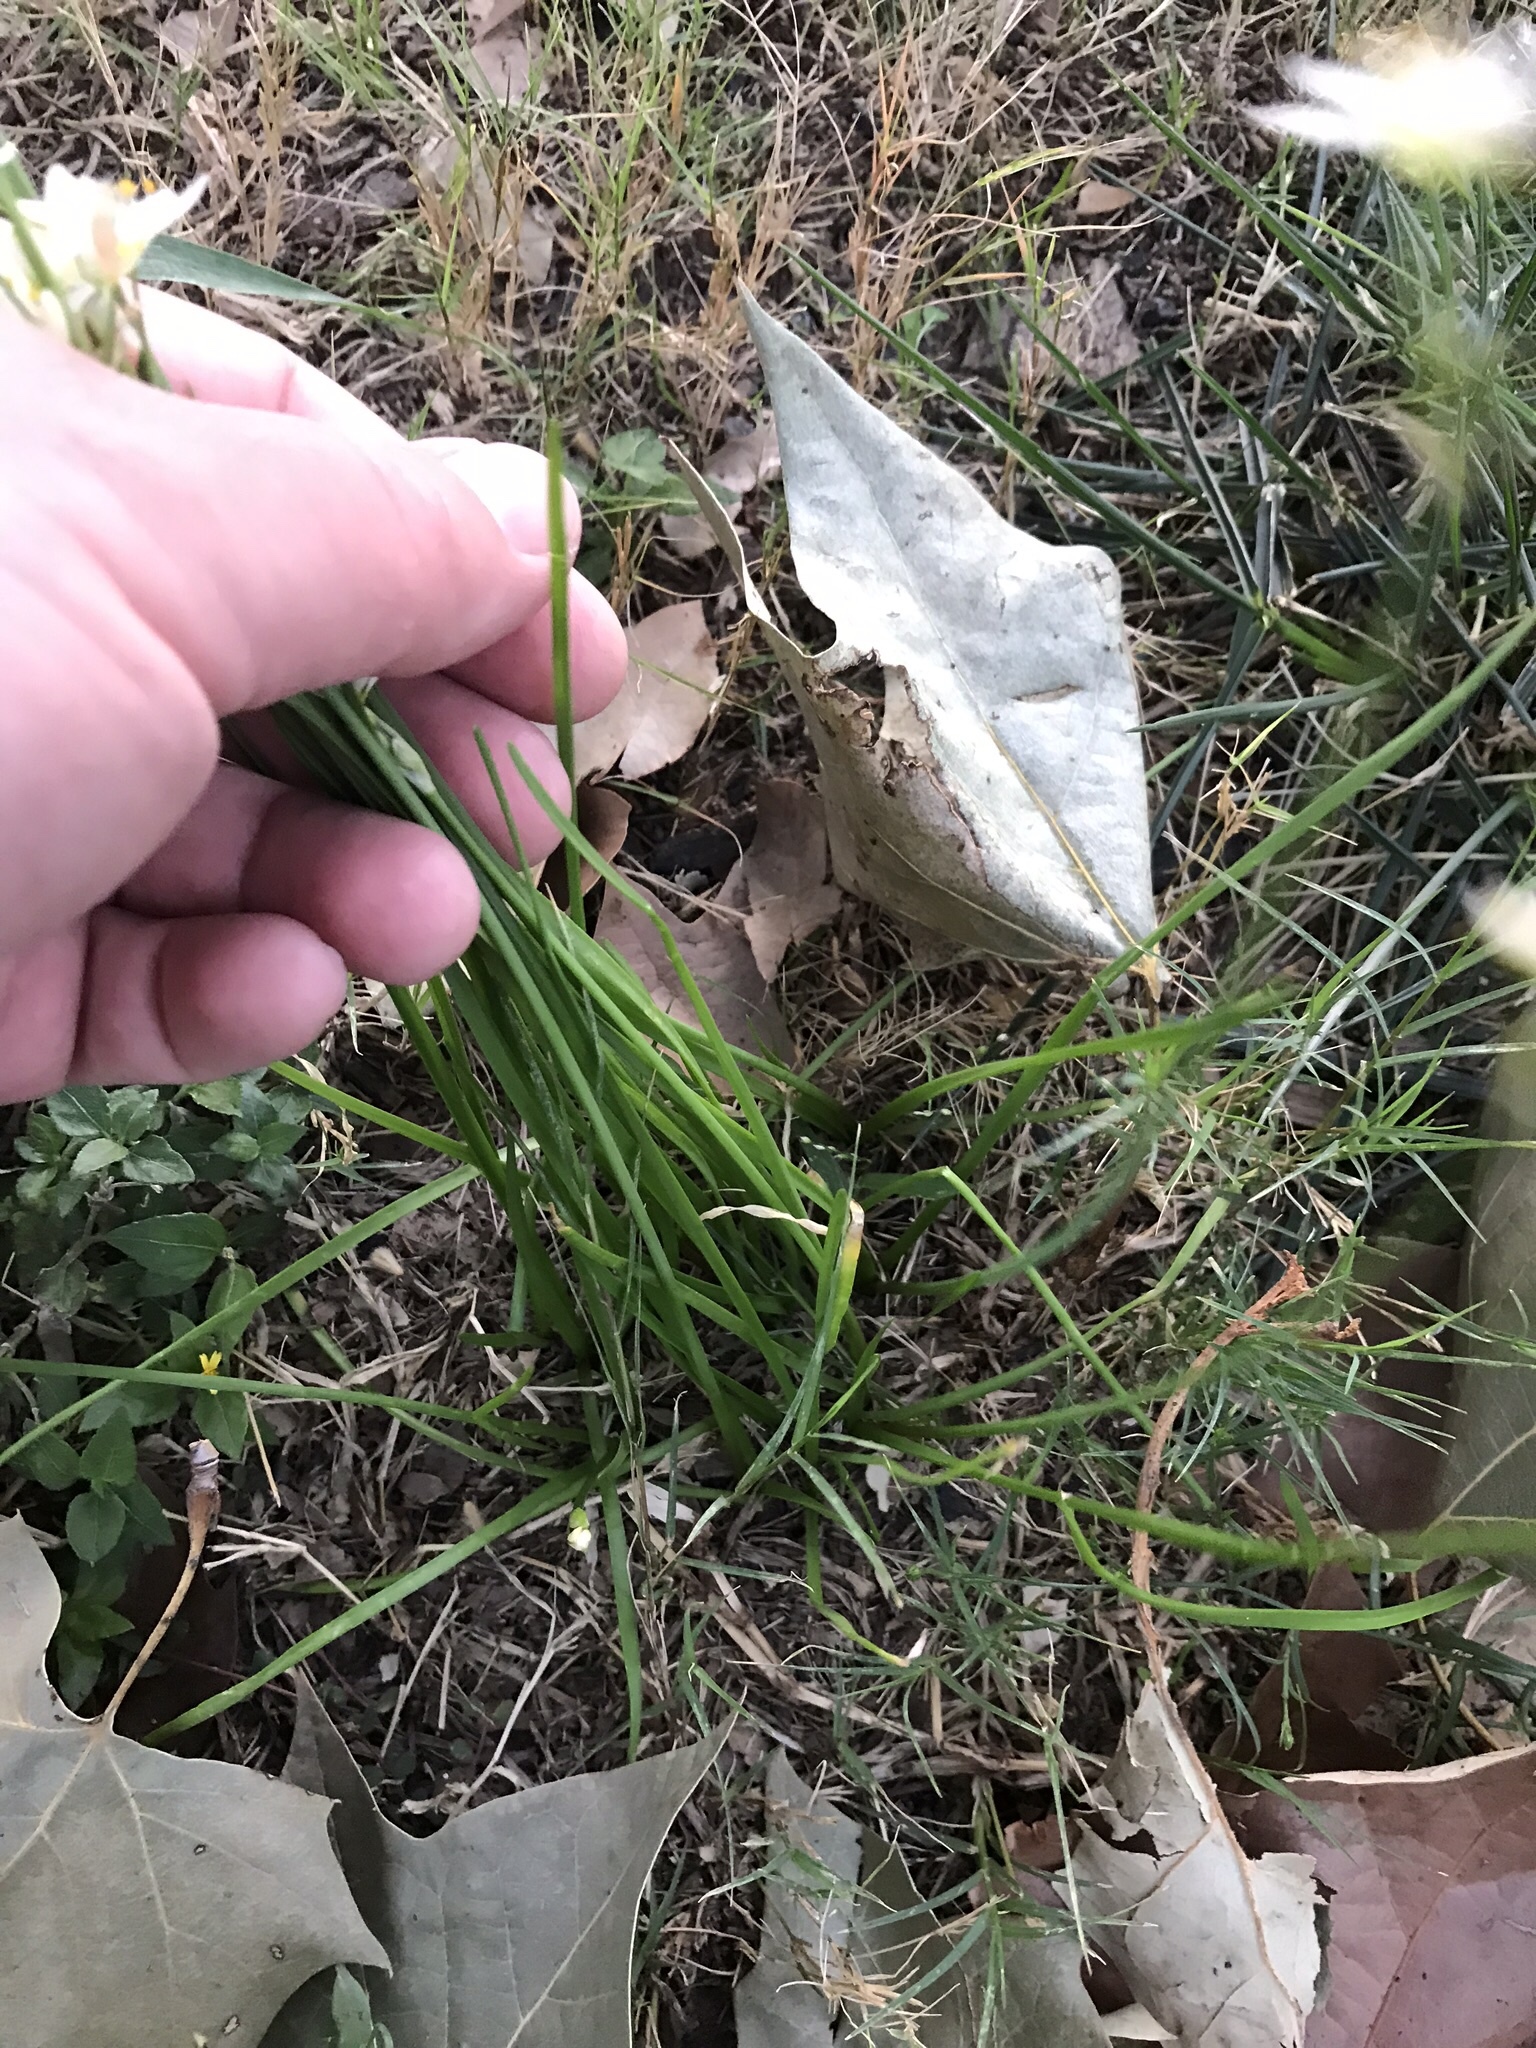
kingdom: Plantae
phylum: Tracheophyta
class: Liliopsida
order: Asparagales
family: Amaryllidaceae
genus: Nothoscordum
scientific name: Nothoscordum bivalve
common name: Crow-poison
